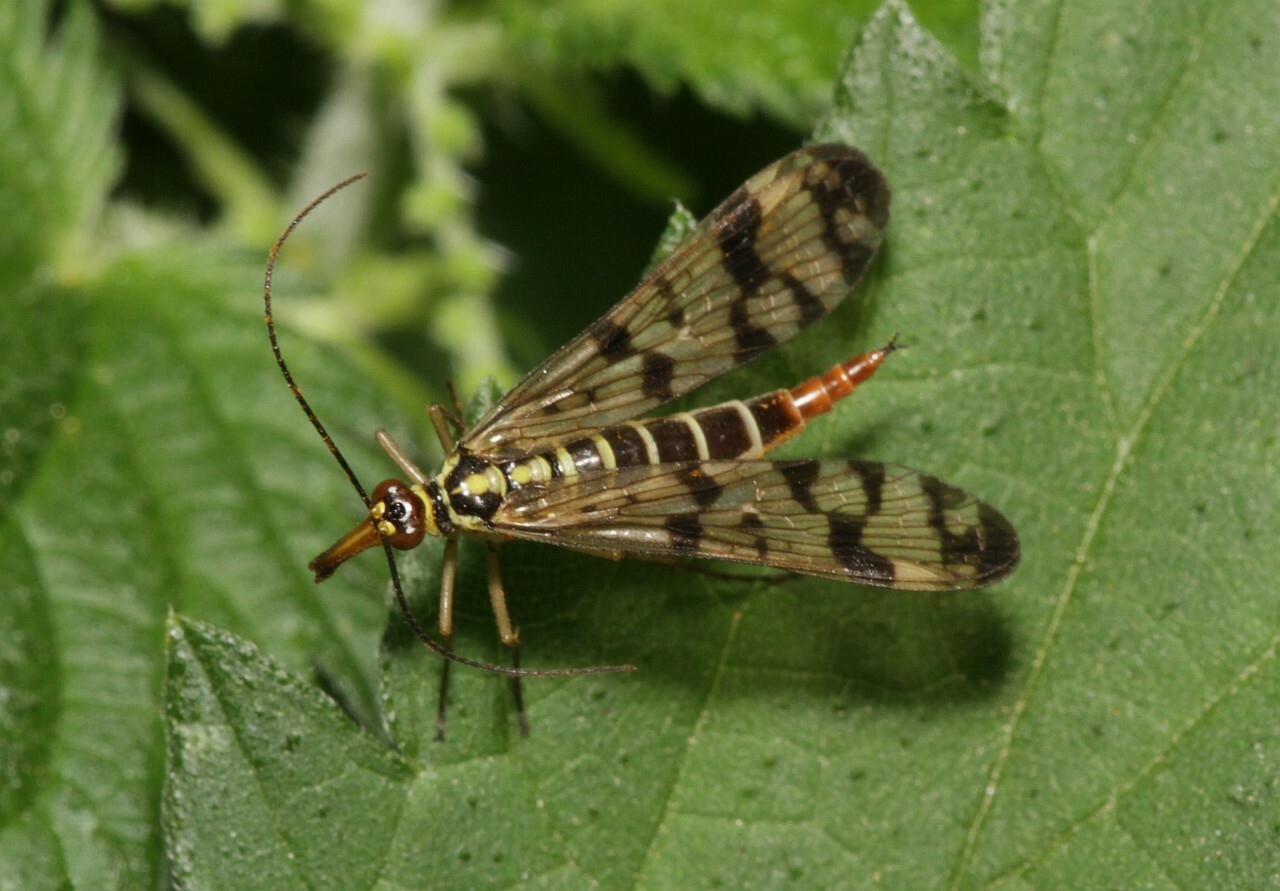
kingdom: Animalia
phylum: Arthropoda
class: Insecta
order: Mecoptera
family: Panorpidae
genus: Panorpa
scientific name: Panorpa germanica
